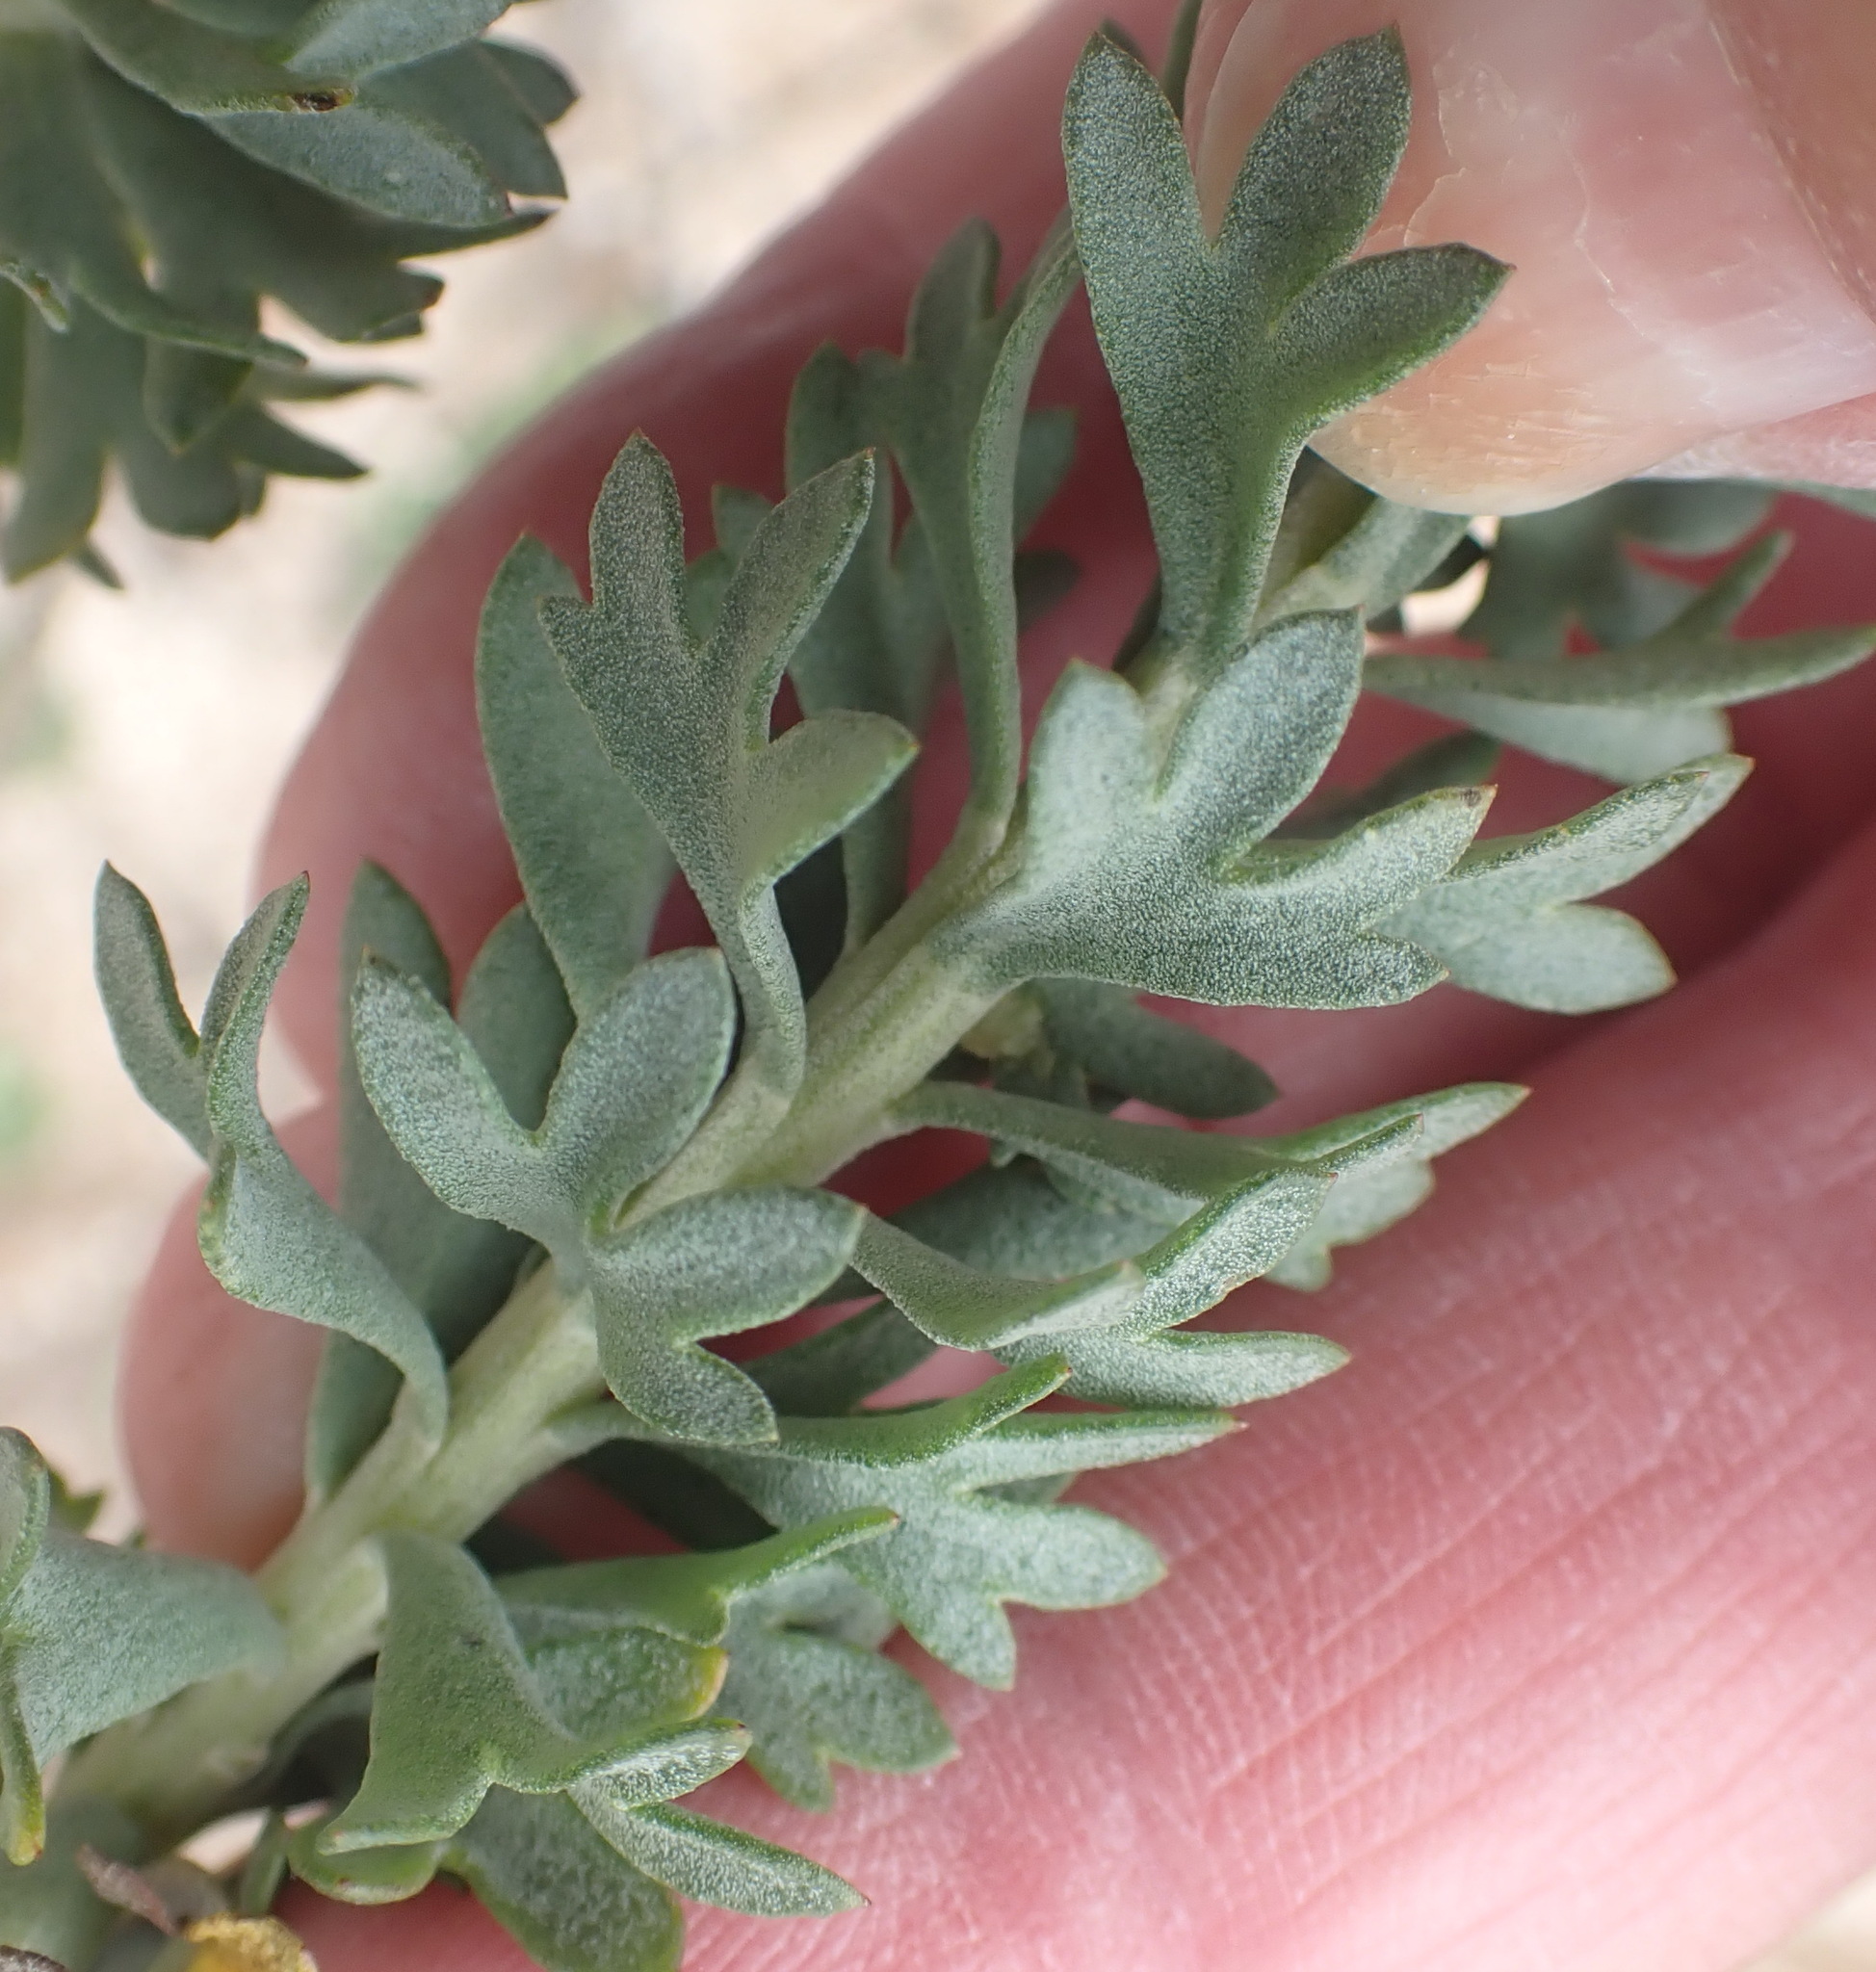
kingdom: Plantae
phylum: Tracheophyta
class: Magnoliopsida
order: Asterales
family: Asteraceae
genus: Athanasia
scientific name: Athanasia trifurcata
